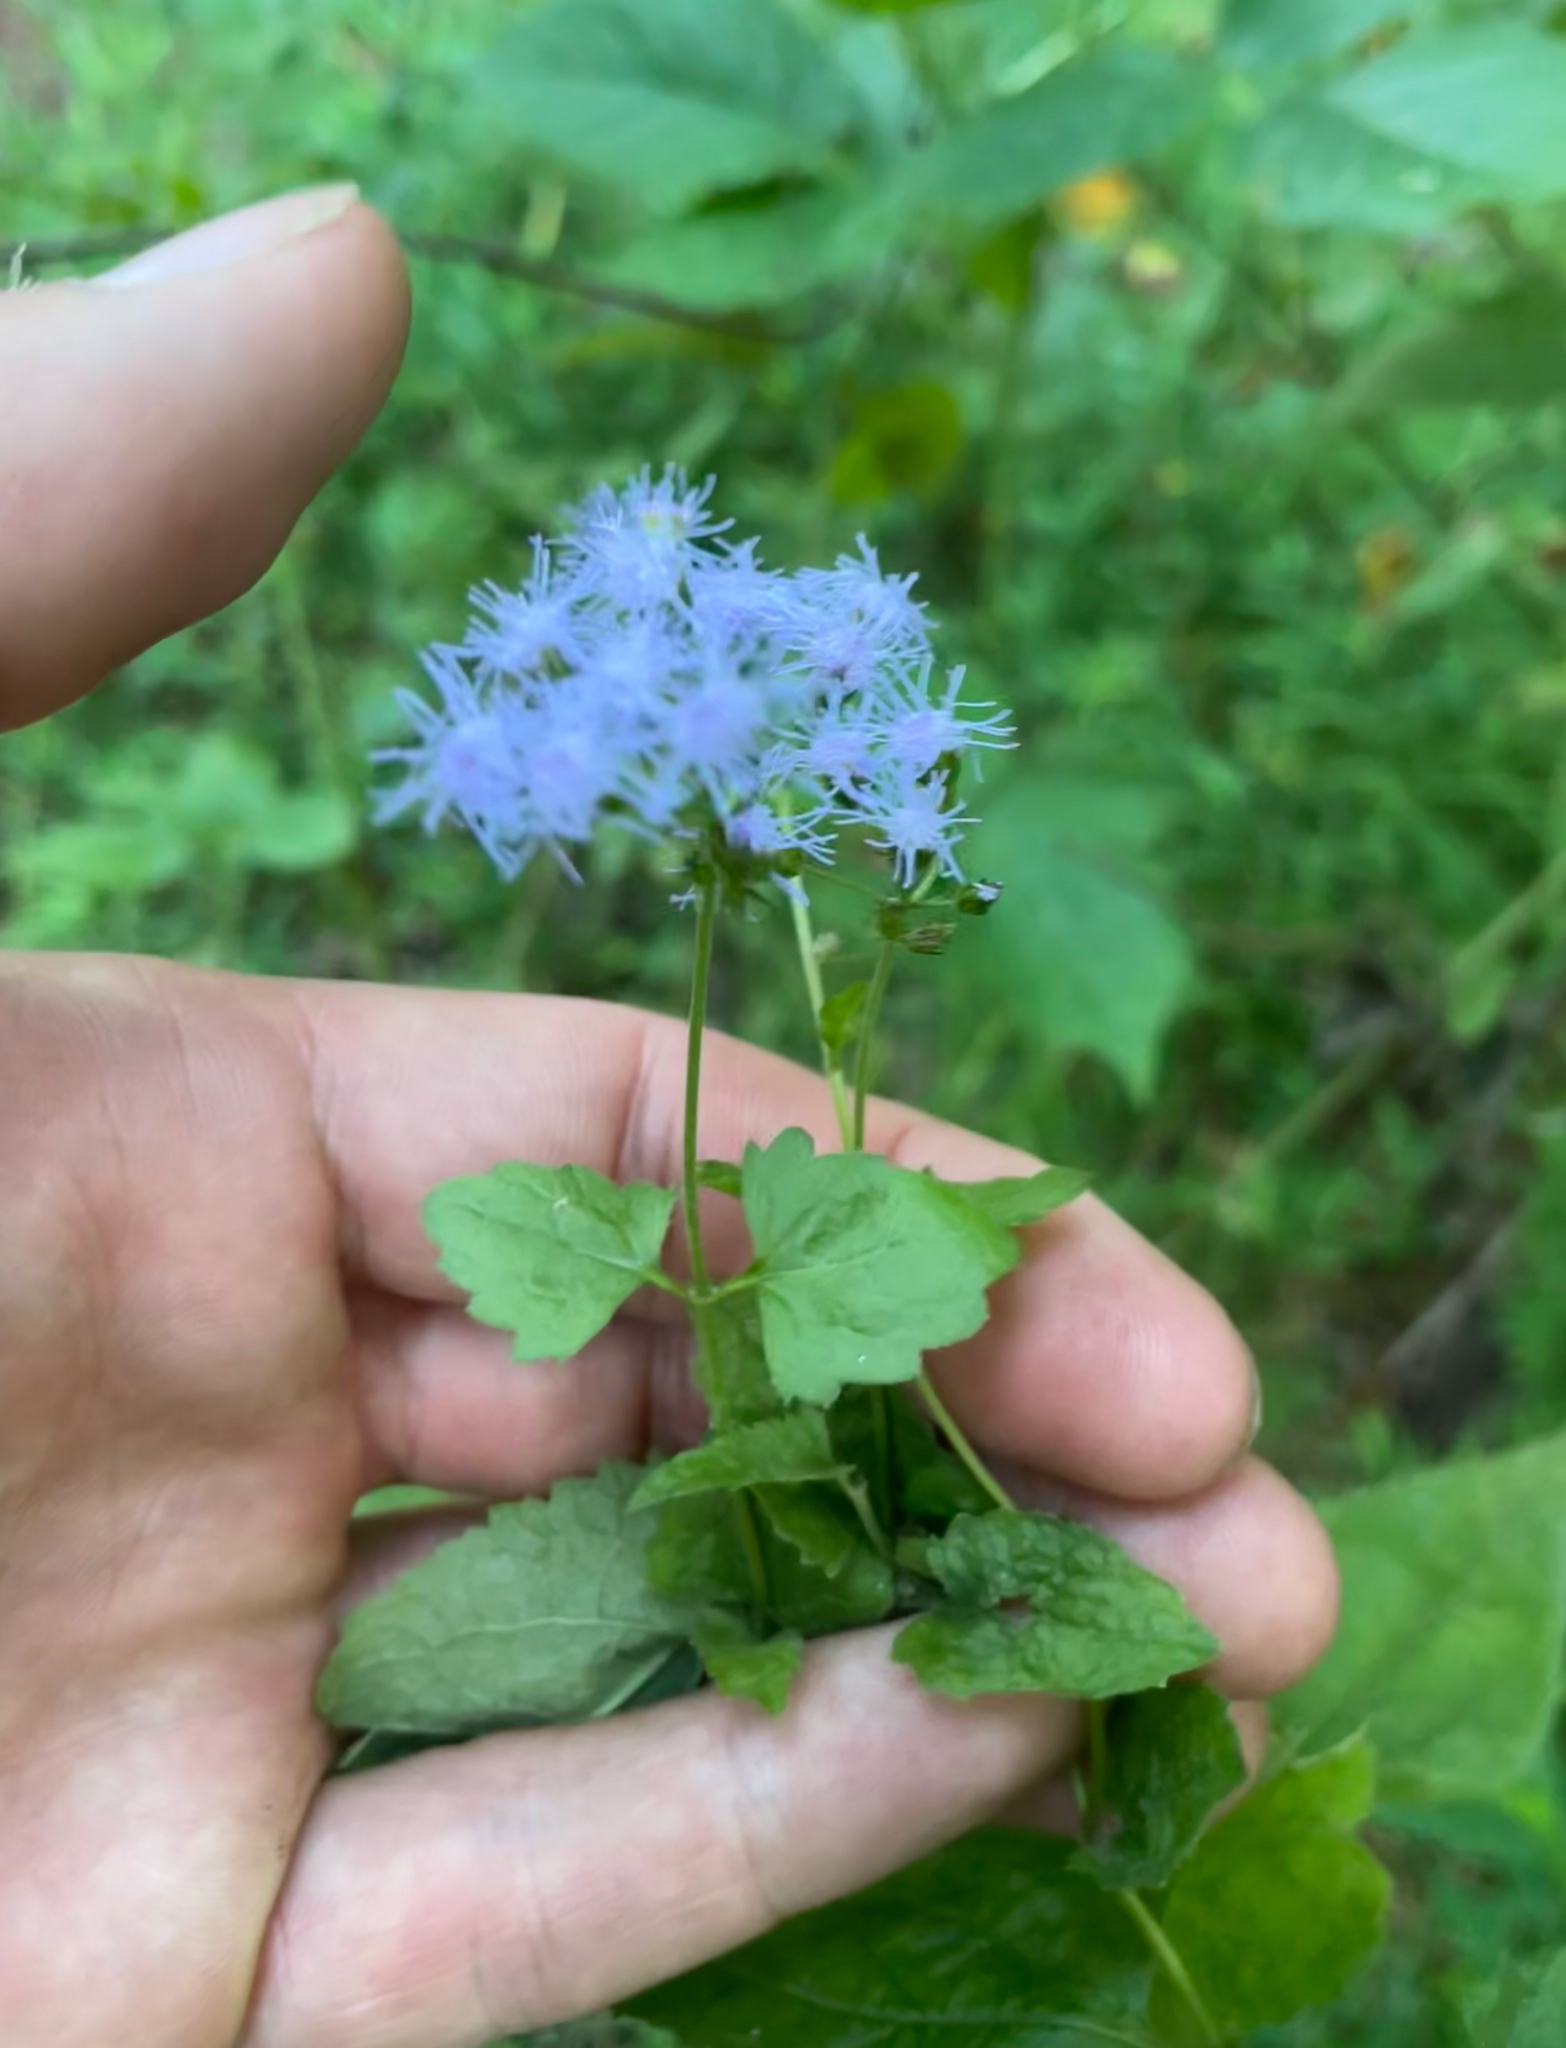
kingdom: Plantae
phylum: Tracheophyta
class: Magnoliopsida
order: Asterales
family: Asteraceae
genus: Conoclinium
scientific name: Conoclinium coelestinum
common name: Blue mistflower
